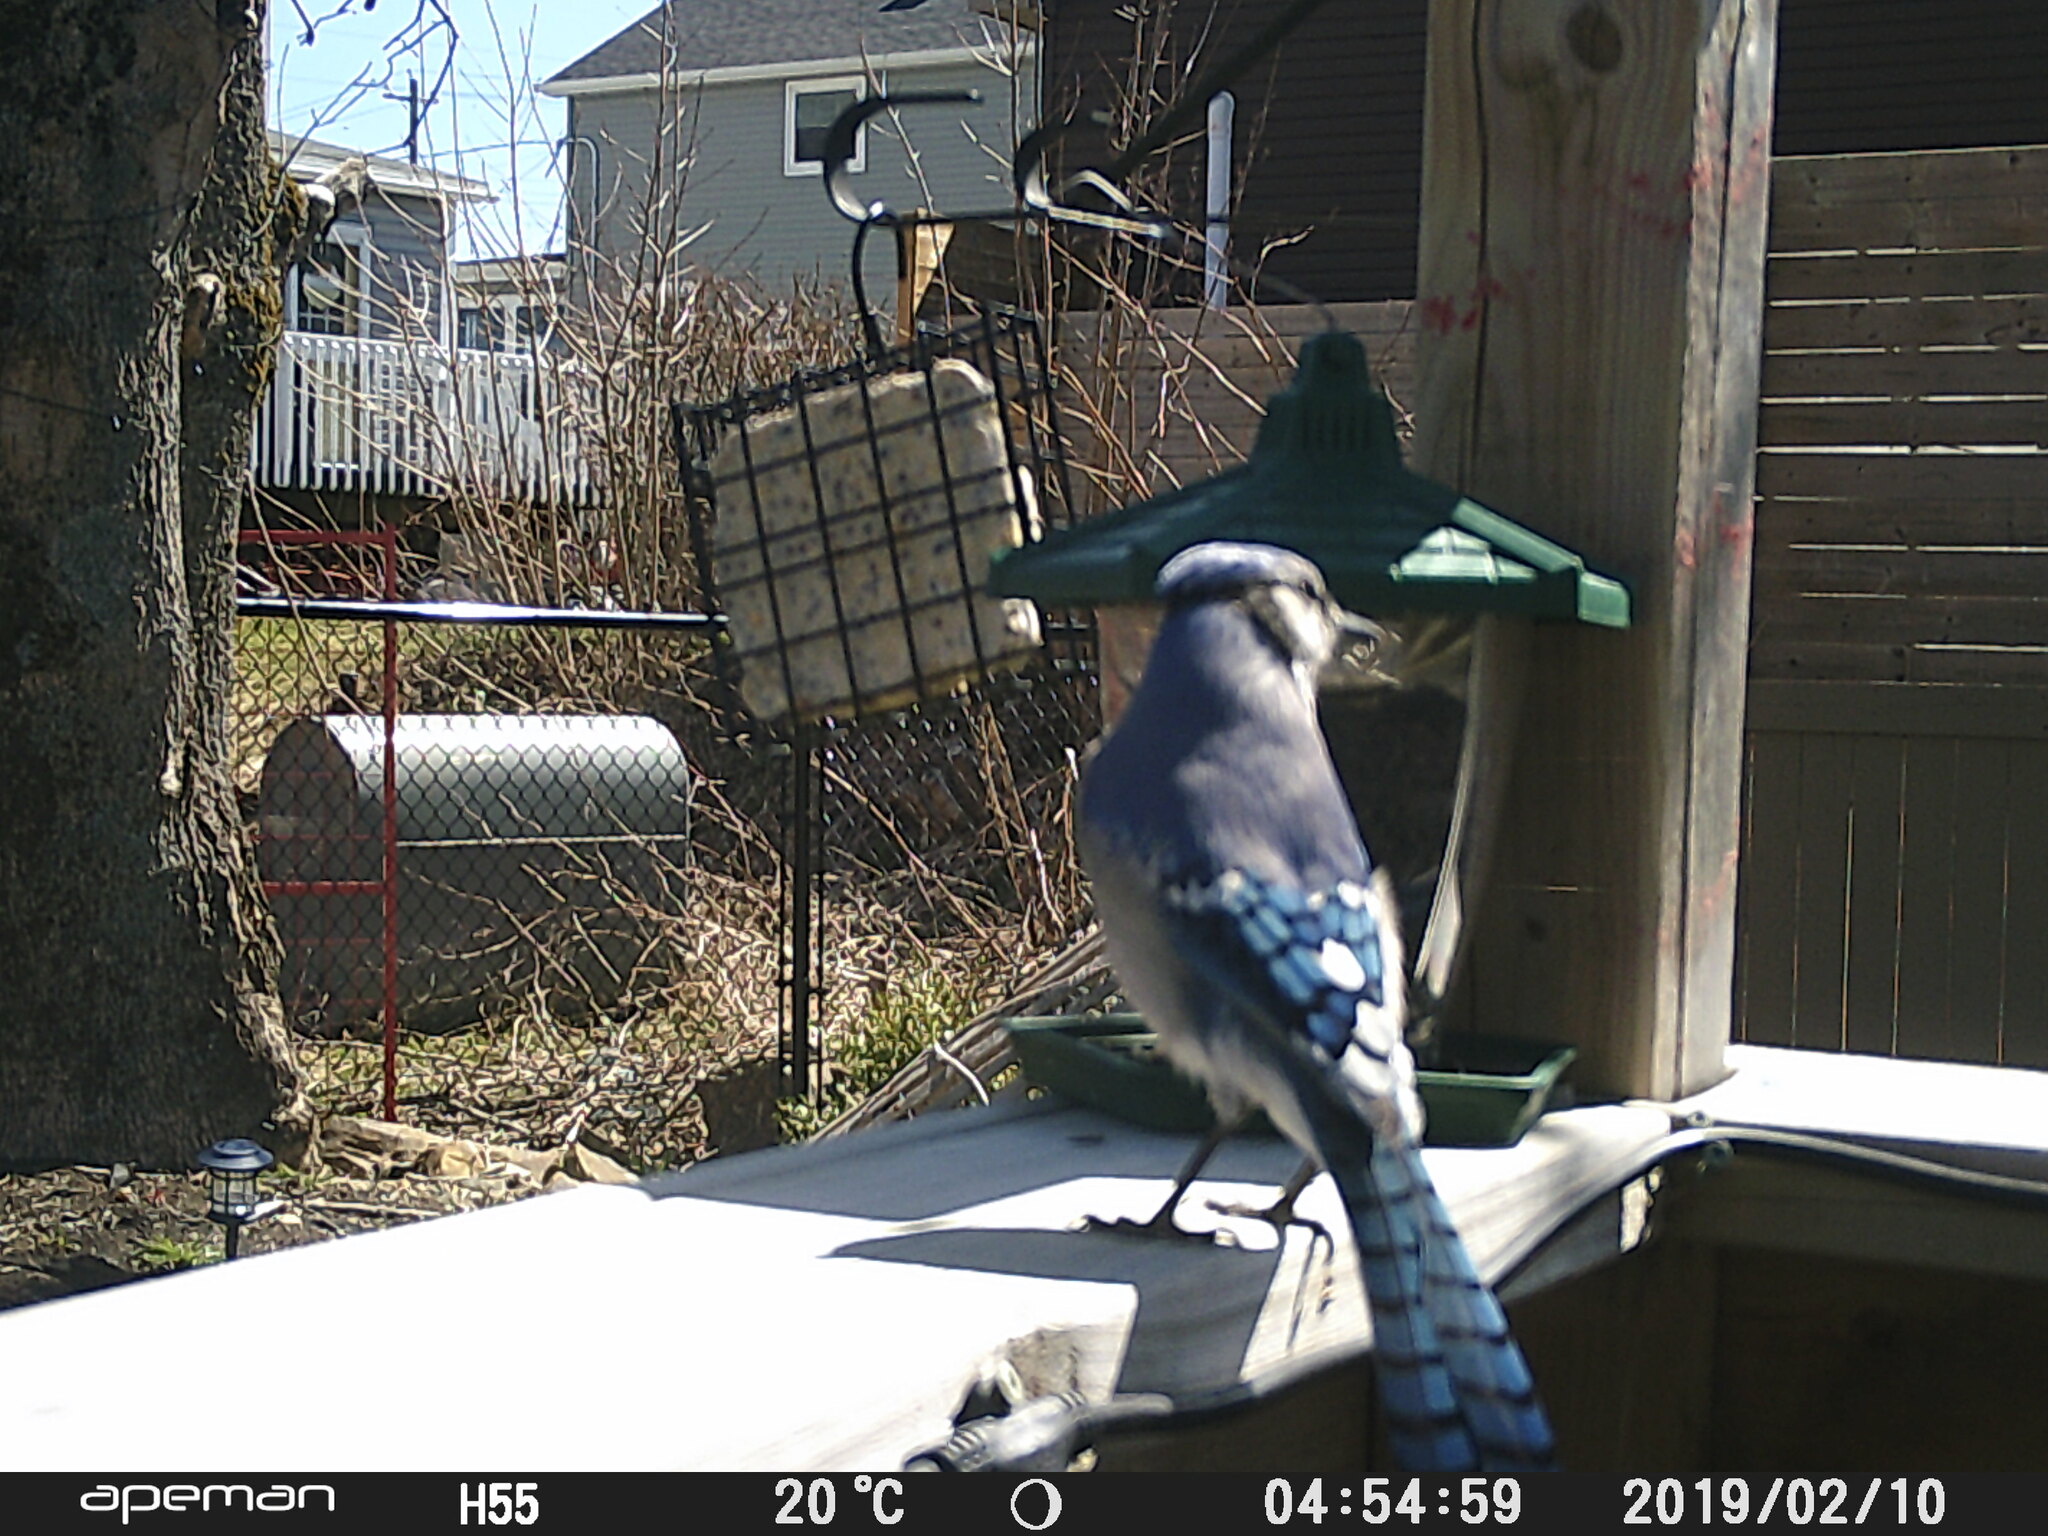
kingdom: Animalia
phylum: Chordata
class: Aves
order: Passeriformes
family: Corvidae
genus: Cyanocitta
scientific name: Cyanocitta cristata
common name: Blue jay
